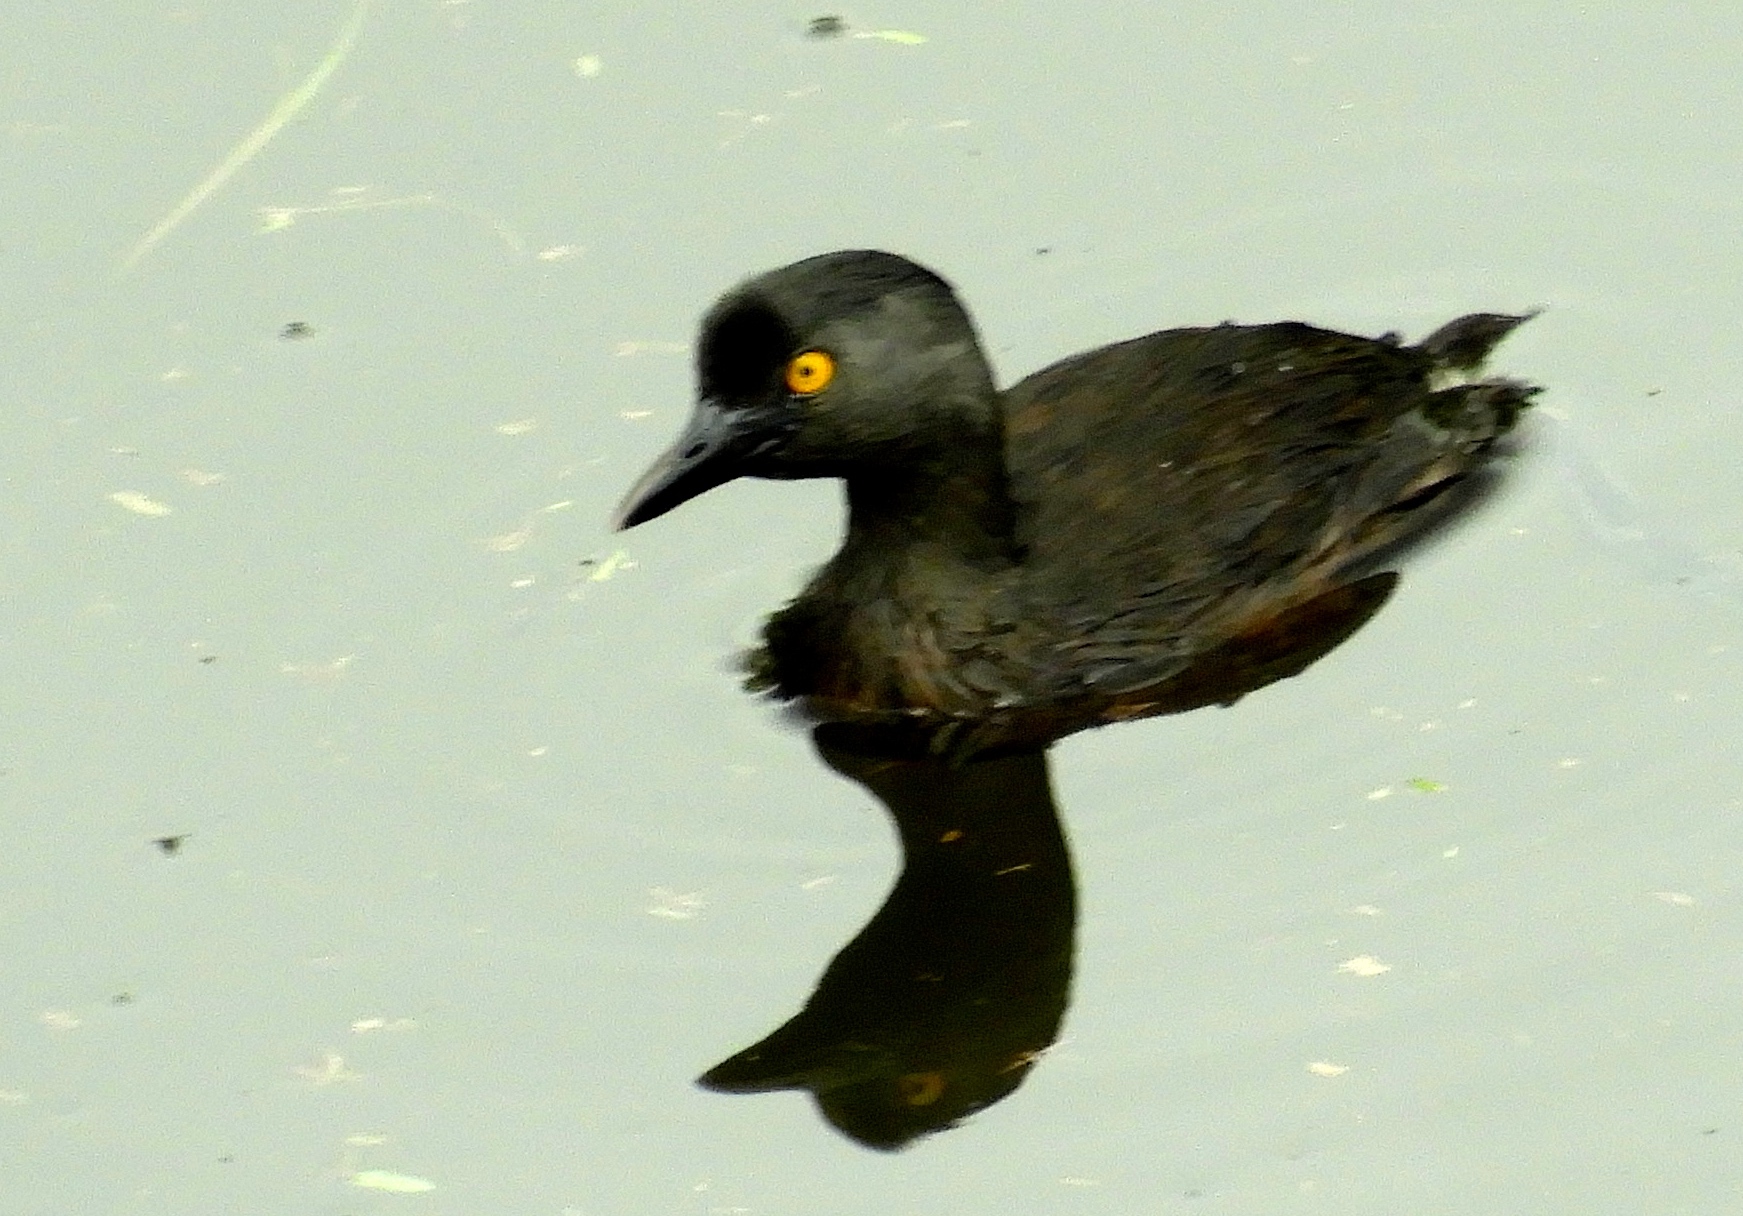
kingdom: Animalia
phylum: Chordata
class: Aves
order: Podicipediformes
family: Podicipedidae
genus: Tachybaptus
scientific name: Tachybaptus dominicus
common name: Least grebe
